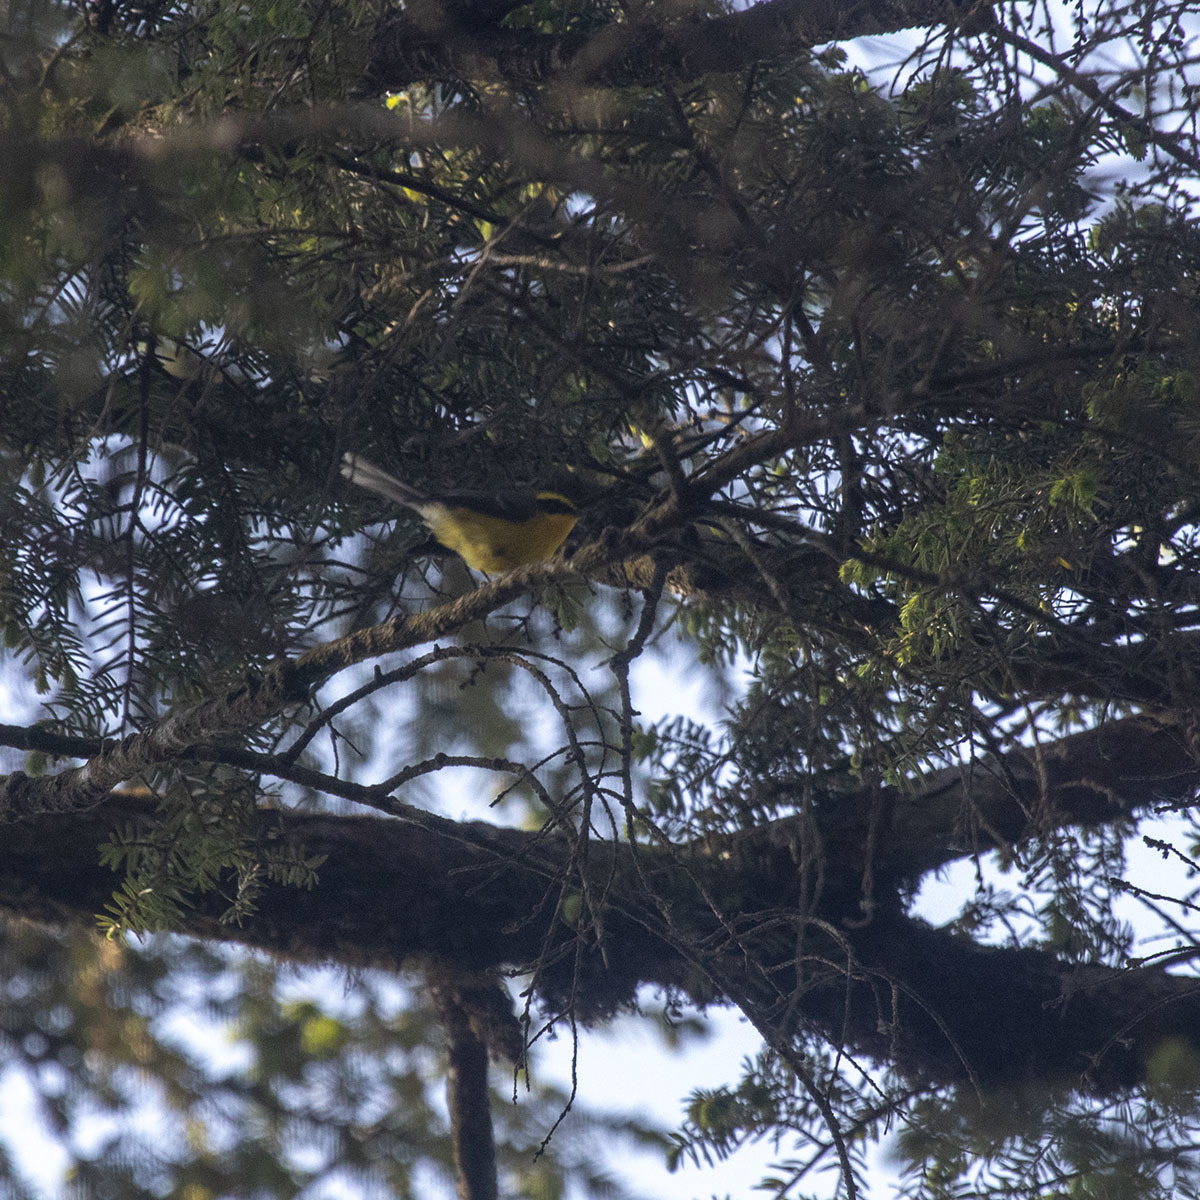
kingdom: Animalia
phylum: Chordata
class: Aves
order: Passeriformes
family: Stenostiridae
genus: Chelidorhynx
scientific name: Chelidorhynx hypoxantha
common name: Yellow-bellied fantail
